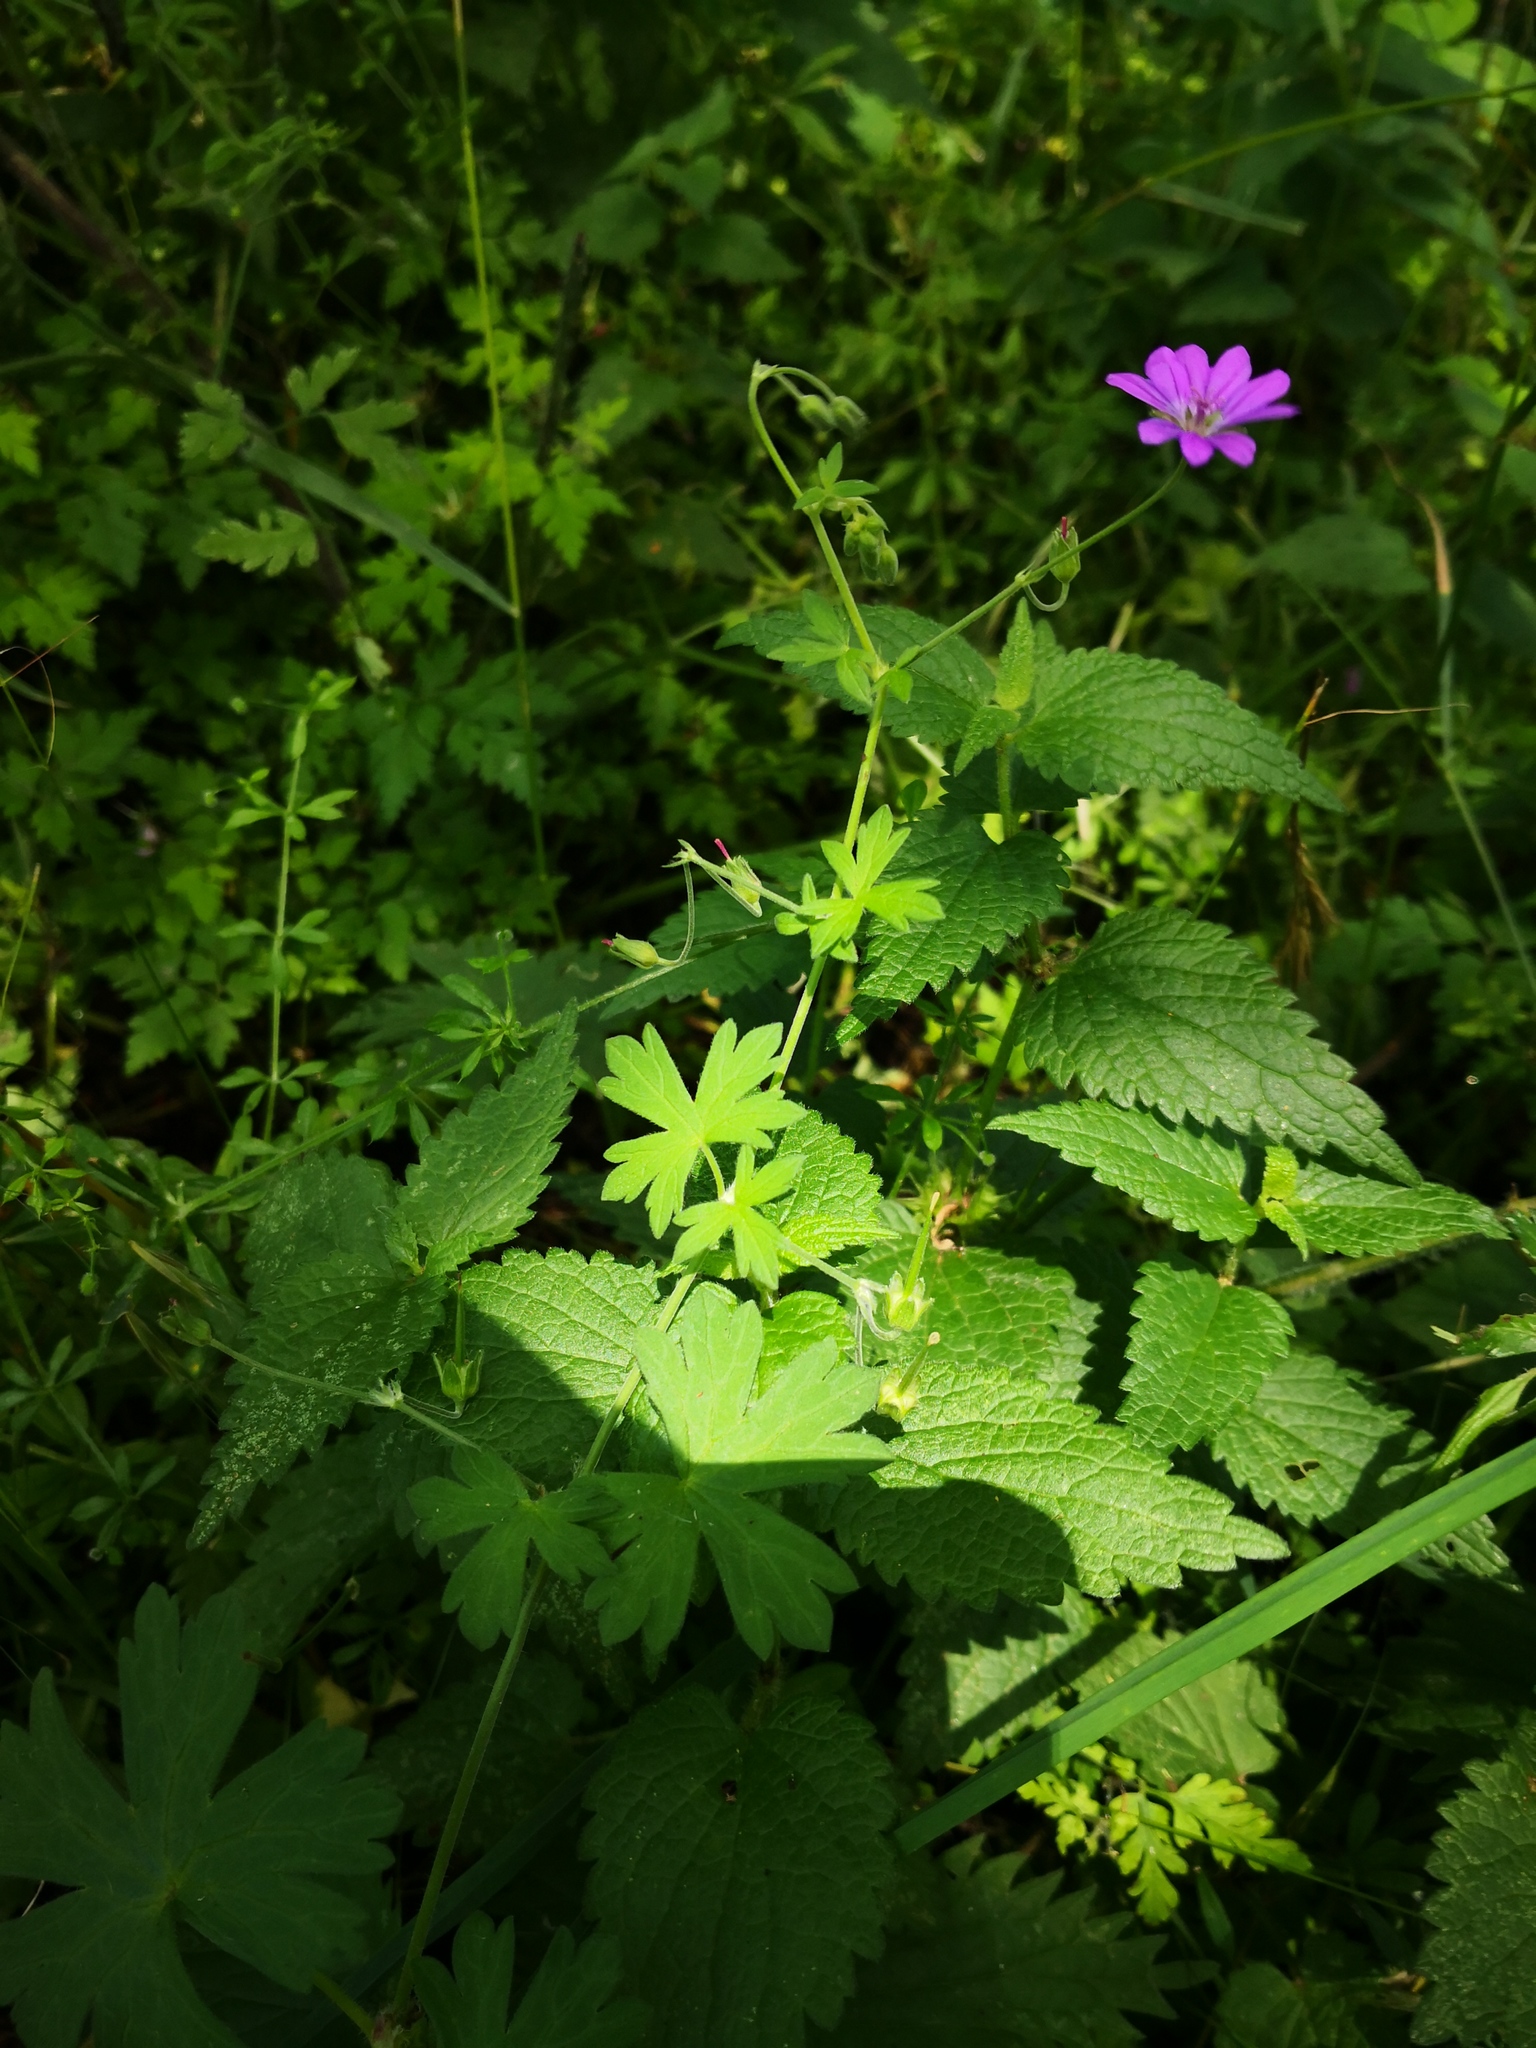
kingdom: Plantae
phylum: Tracheophyta
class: Magnoliopsida
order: Geraniales
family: Geraniaceae
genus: Geranium
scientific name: Geranium pyrenaicum
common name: Hedgerow crane's-bill
